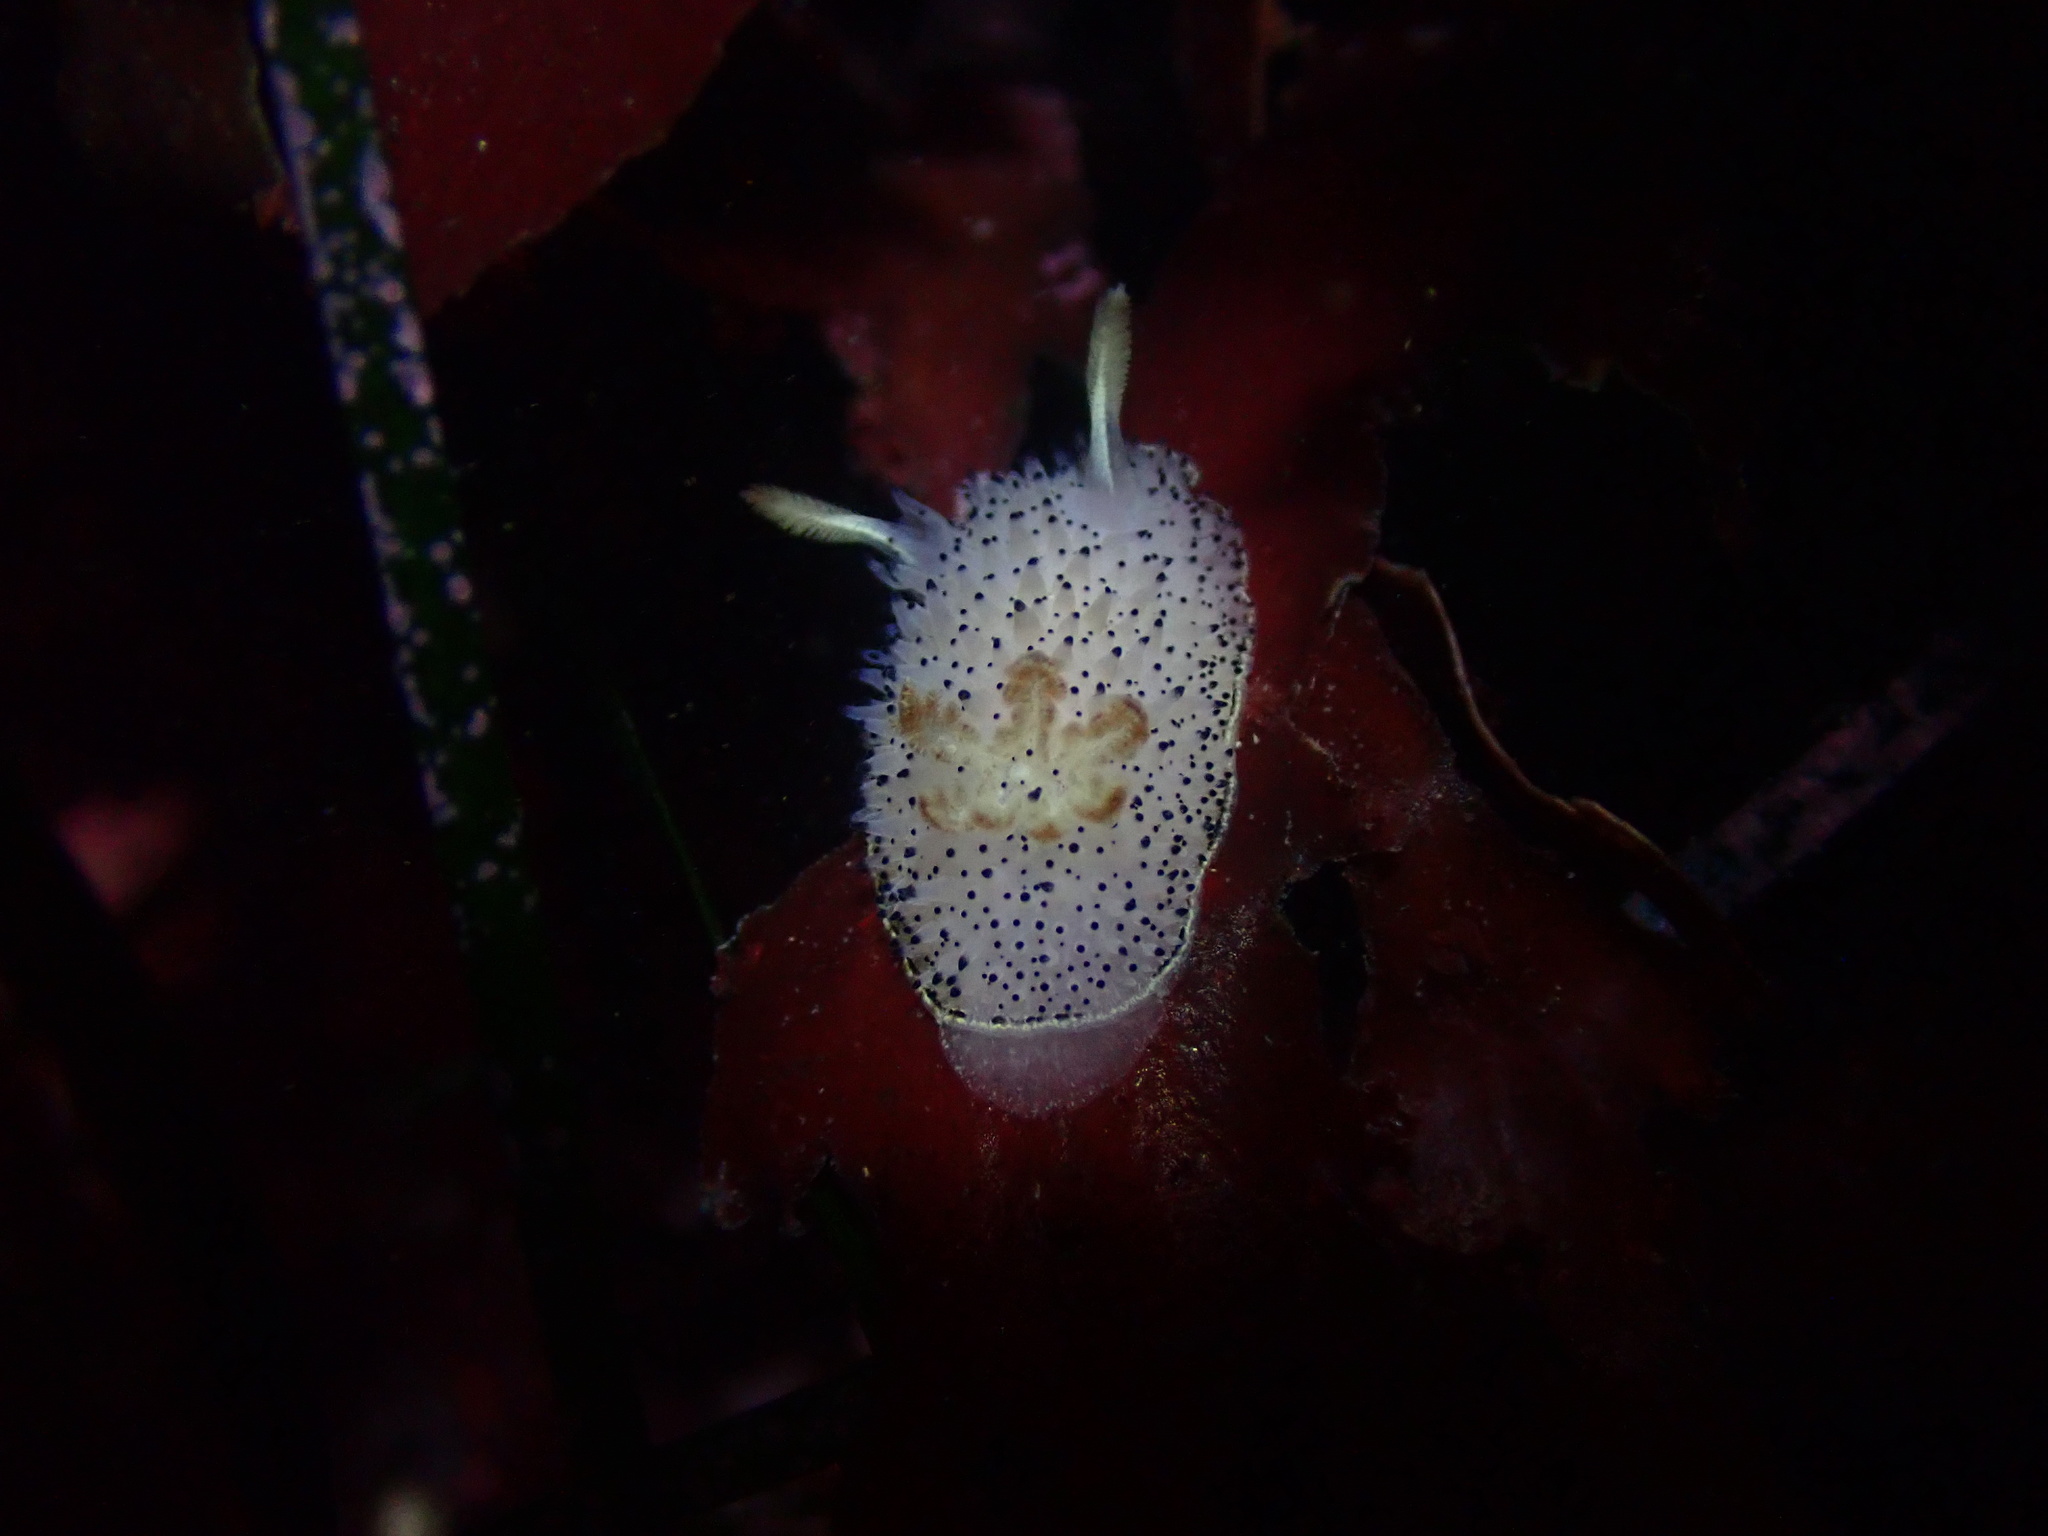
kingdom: Animalia
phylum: Mollusca
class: Gastropoda
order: Nudibranchia
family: Onchidorididae
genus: Acanthodoris
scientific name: Acanthodoris rhodoceras
